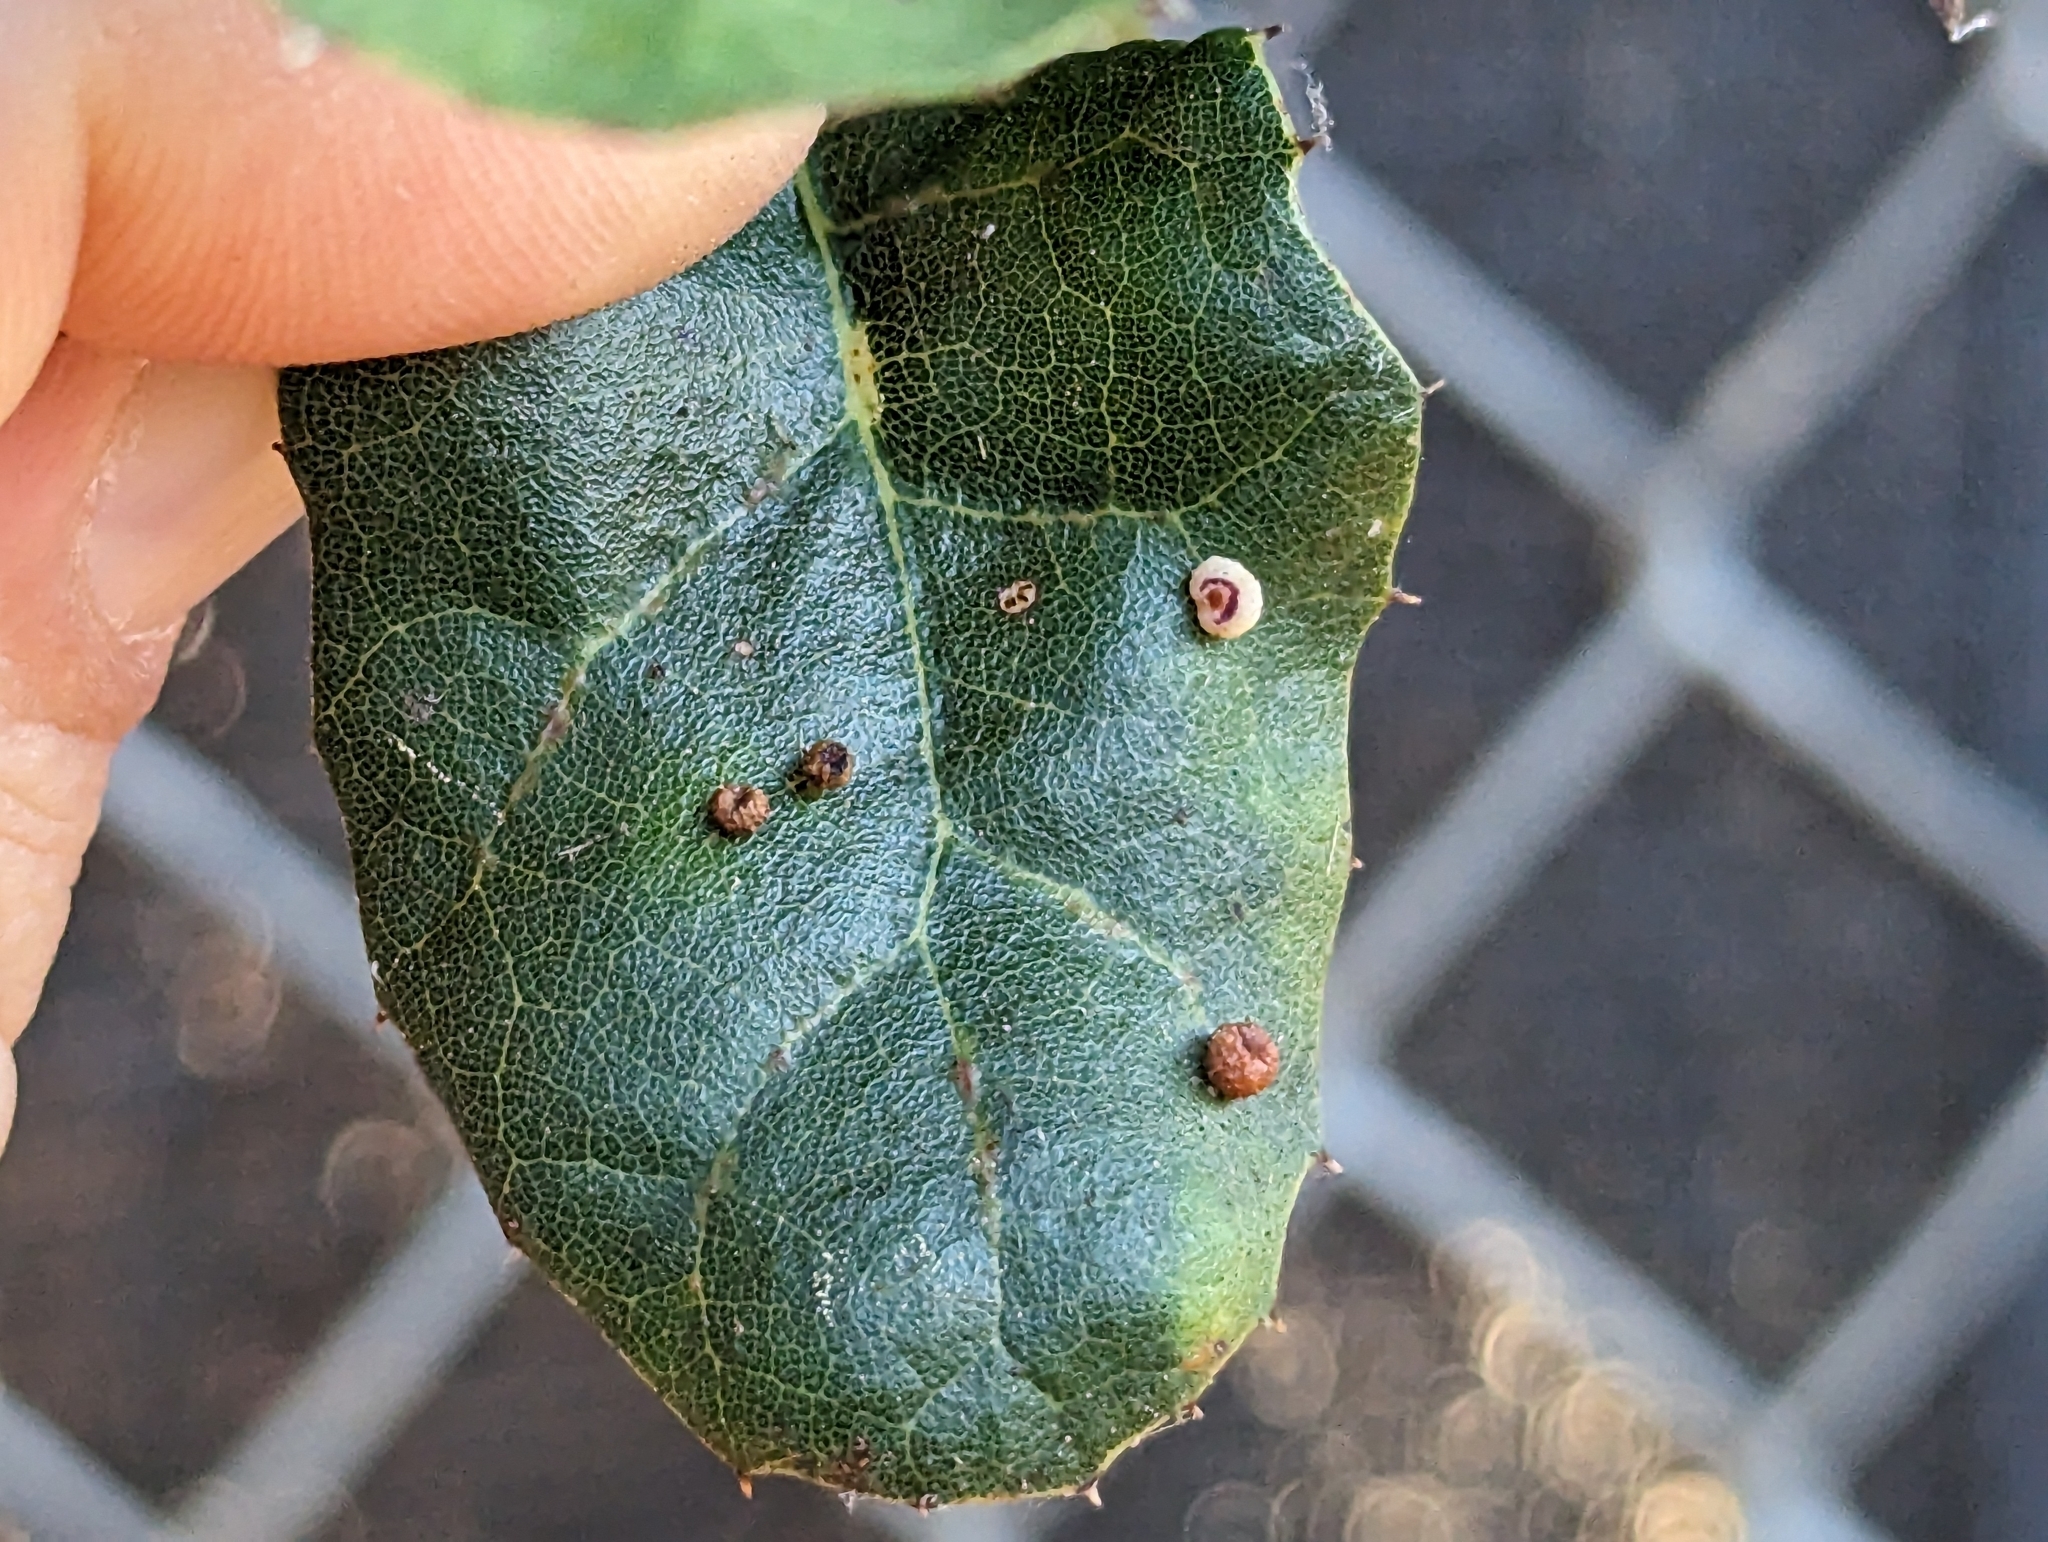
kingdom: Animalia
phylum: Arthropoda
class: Insecta
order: Hymenoptera
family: Cynipidae
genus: Dryocosmus
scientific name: Dryocosmus
